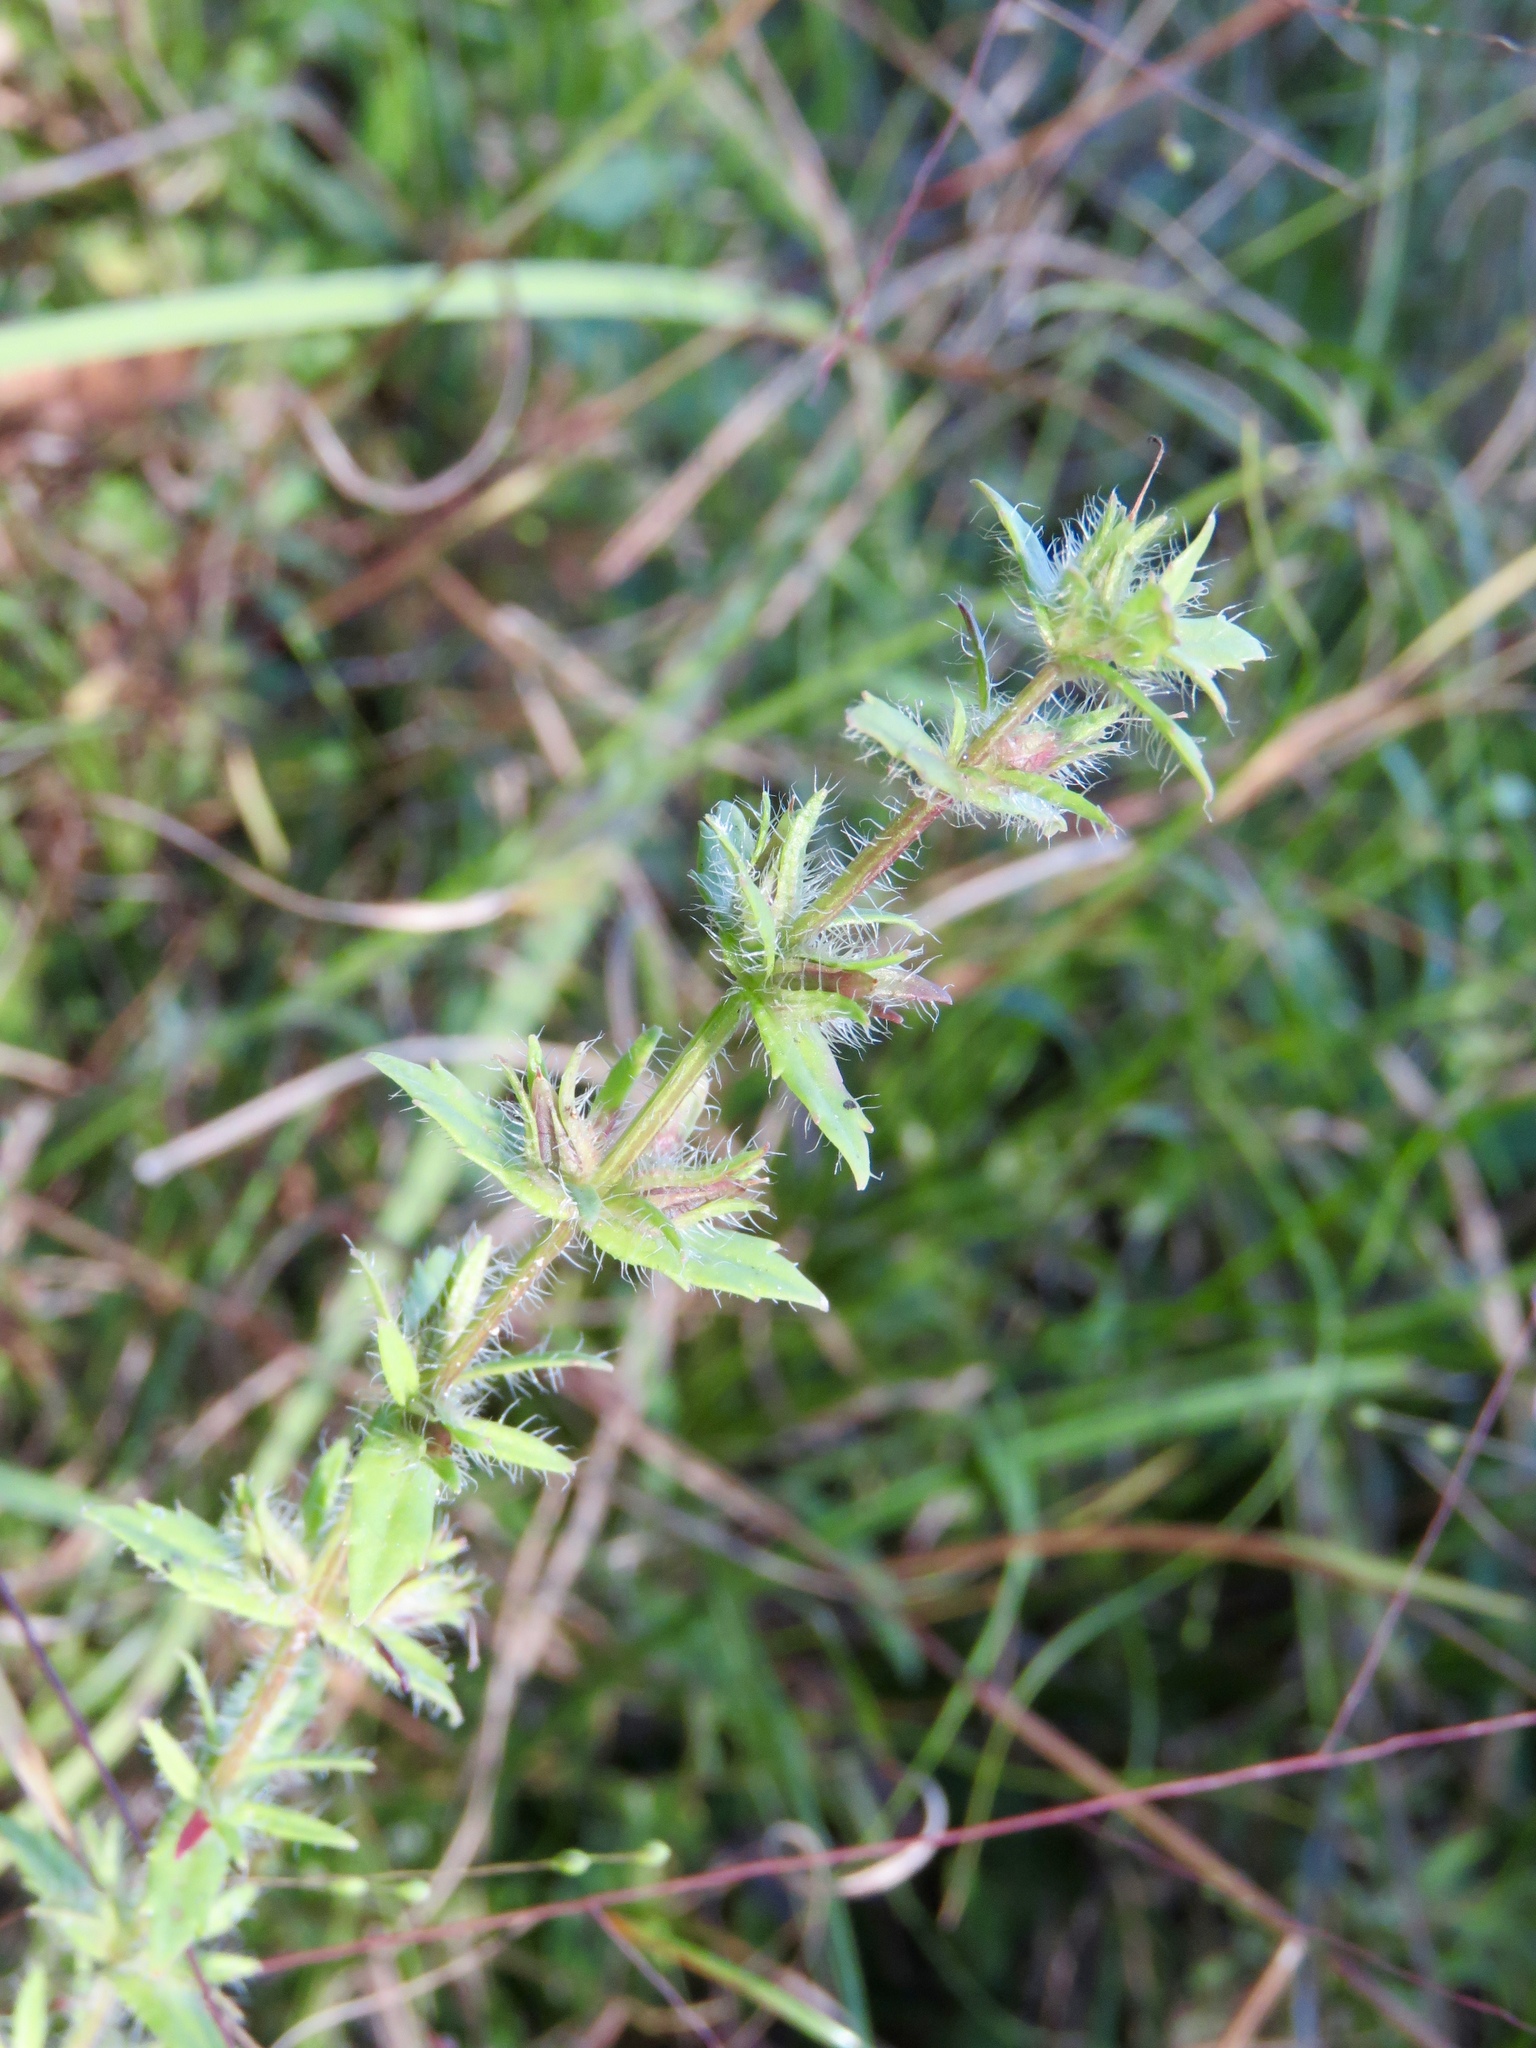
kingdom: Plantae
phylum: Tracheophyta
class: Magnoliopsida
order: Lamiales
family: Plantaginaceae
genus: Gratiola
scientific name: Gratiola pilosa
